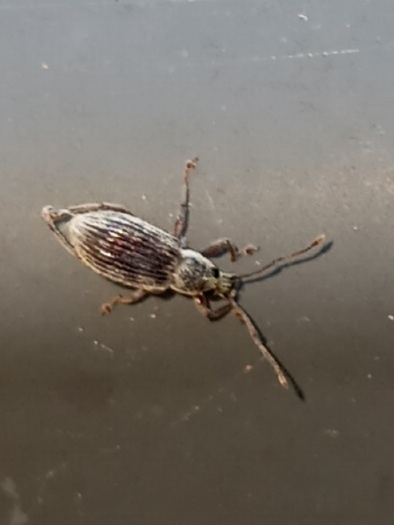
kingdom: Animalia
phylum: Arthropoda
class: Insecta
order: Coleoptera
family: Curculionidae
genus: Cyrtepistomus
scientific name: Cyrtepistomus castaneus
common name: Weevil
